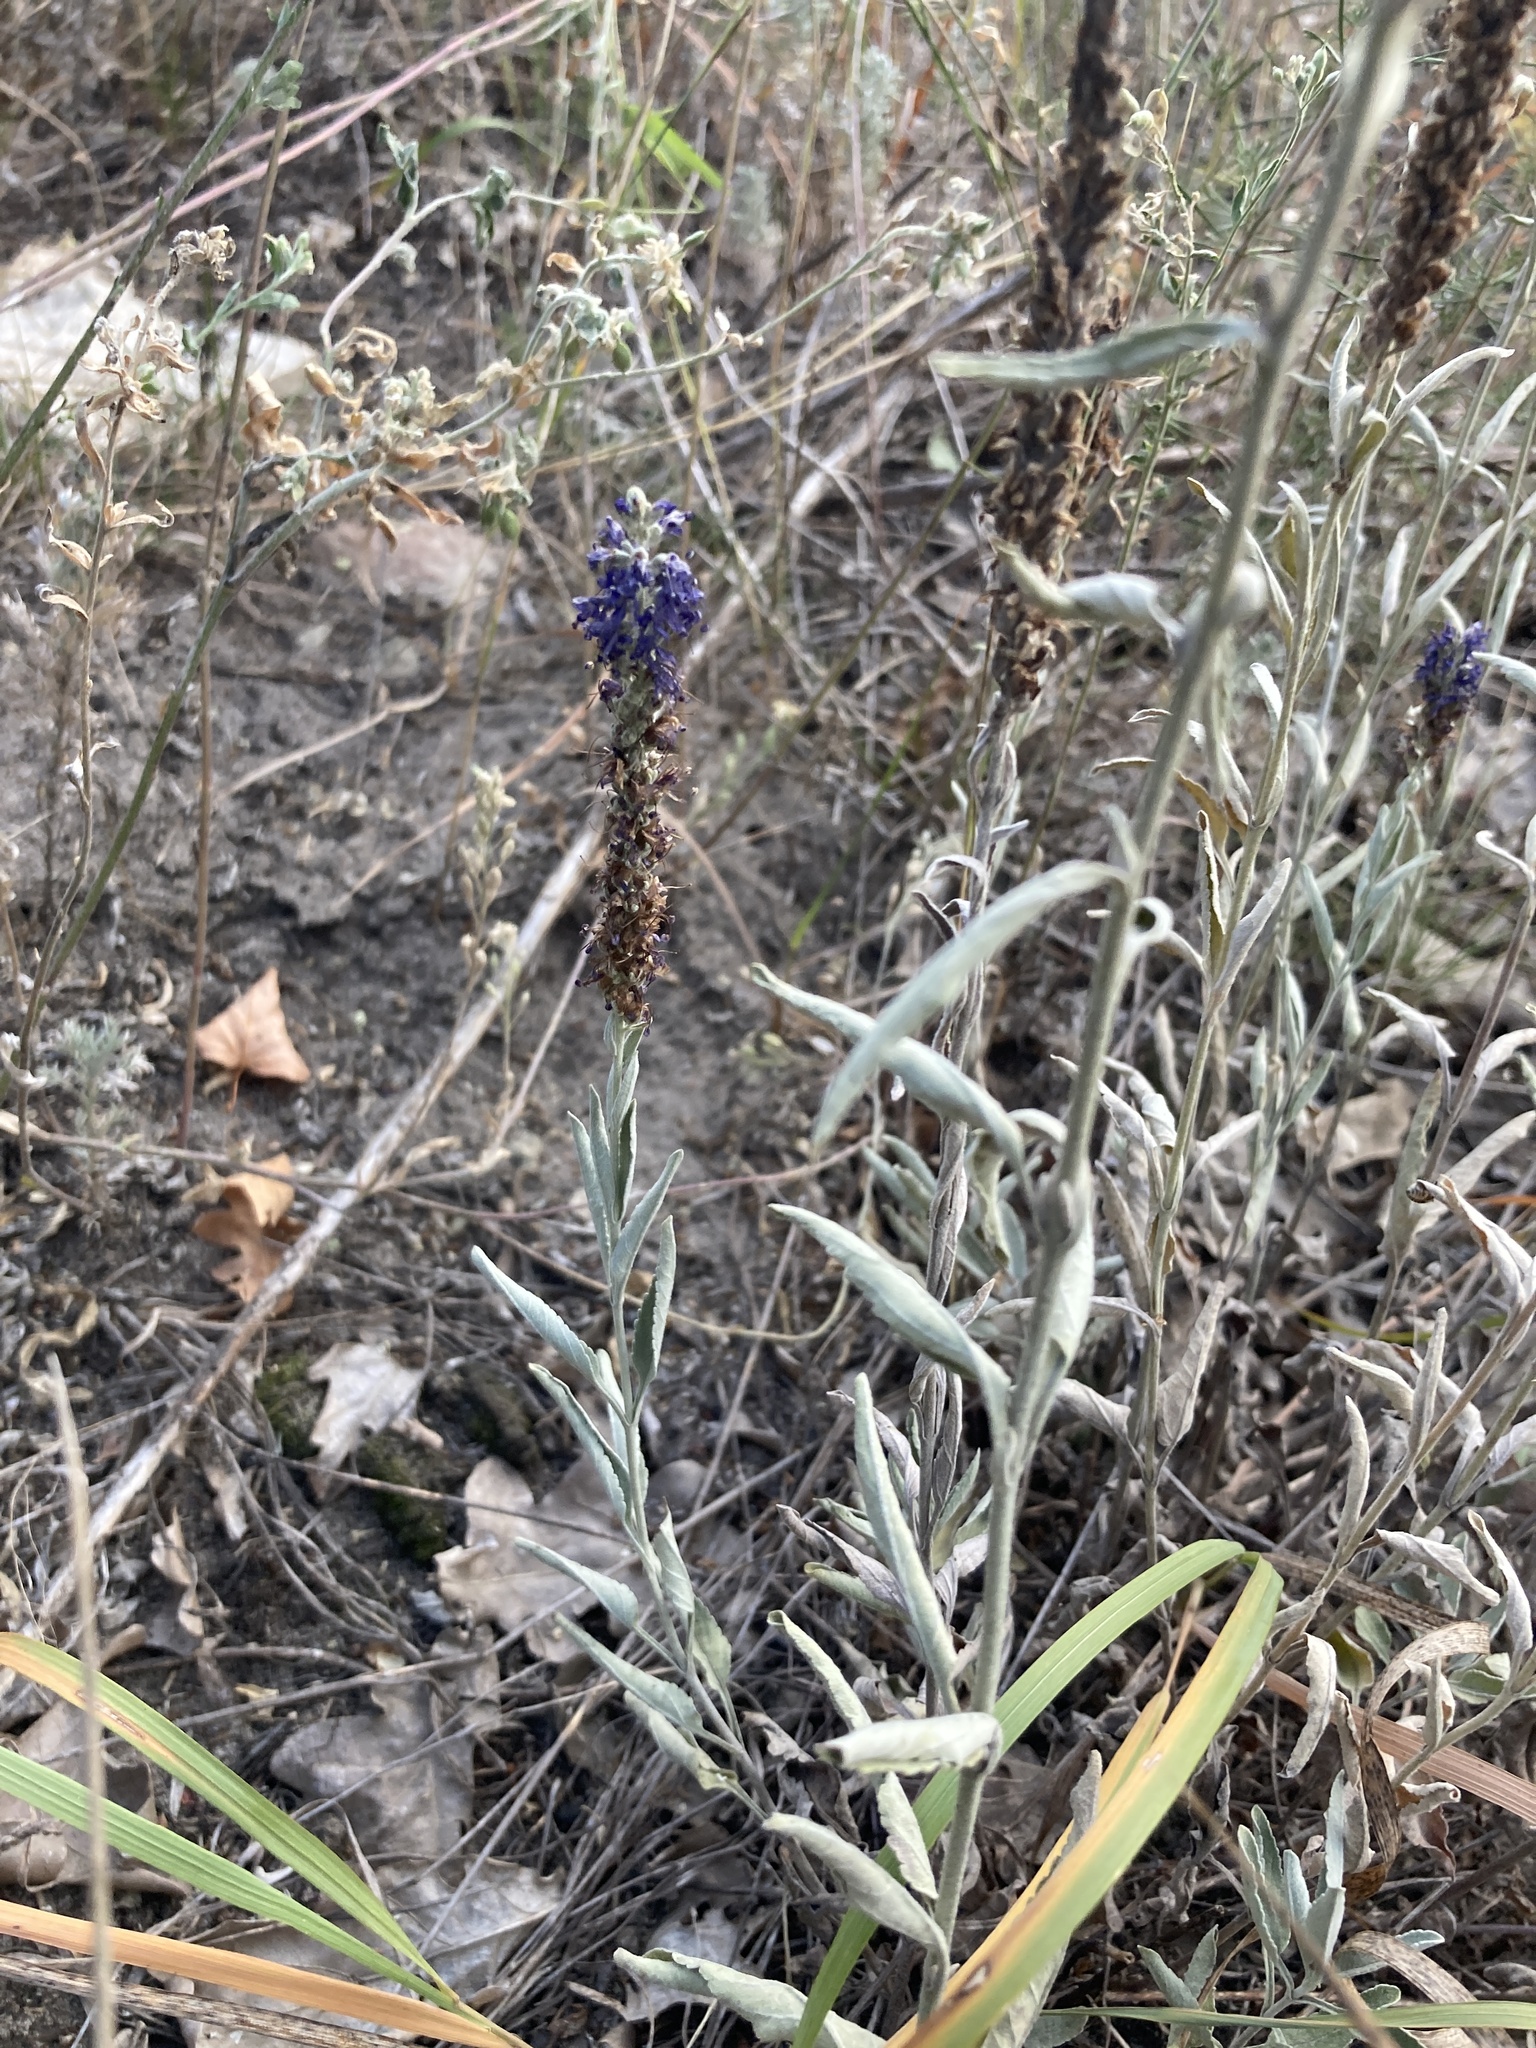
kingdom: Plantae
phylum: Tracheophyta
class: Magnoliopsida
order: Lamiales
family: Plantaginaceae
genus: Veronica
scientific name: Veronica incana
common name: Silver speedwell
